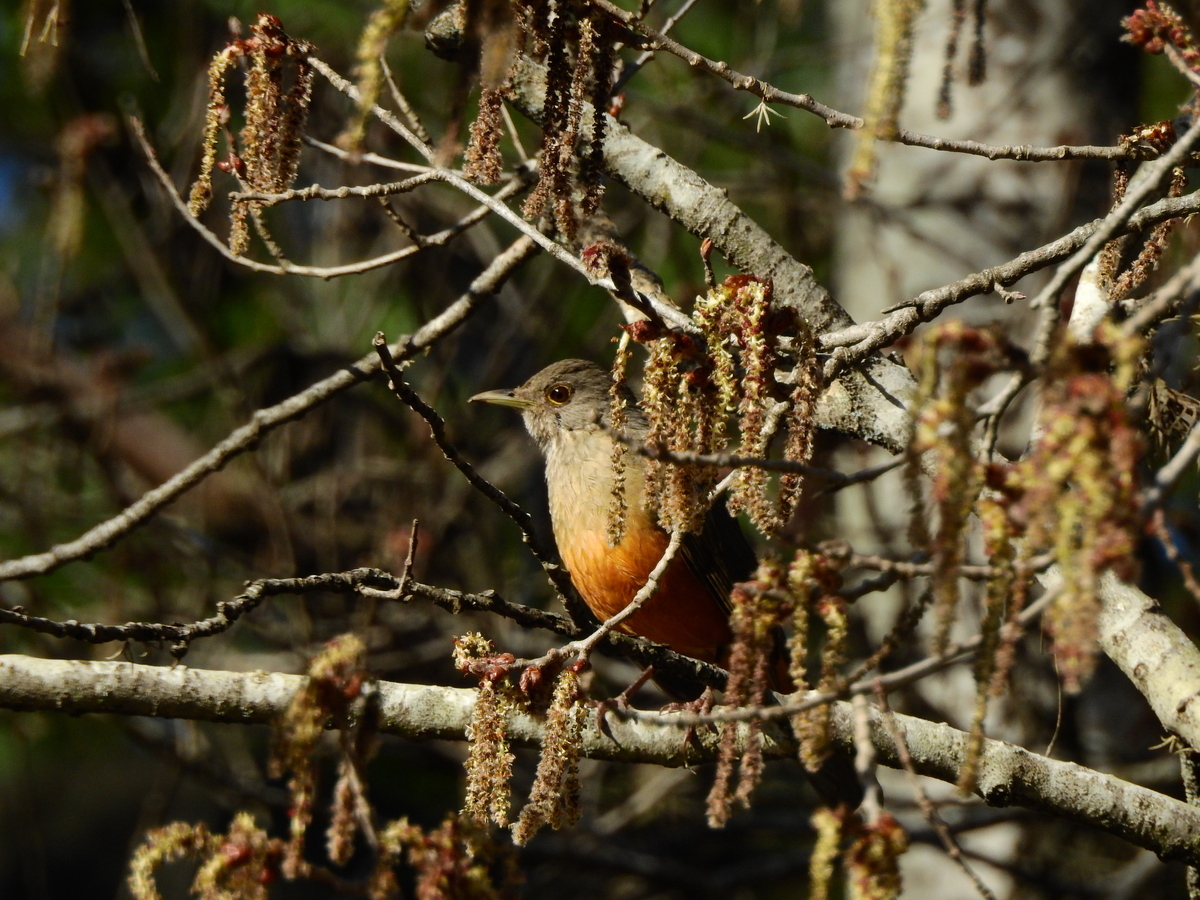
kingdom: Animalia
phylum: Chordata
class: Aves
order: Passeriformes
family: Turdidae
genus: Turdus
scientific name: Turdus rufiventris
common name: Rufous-bellied thrush
